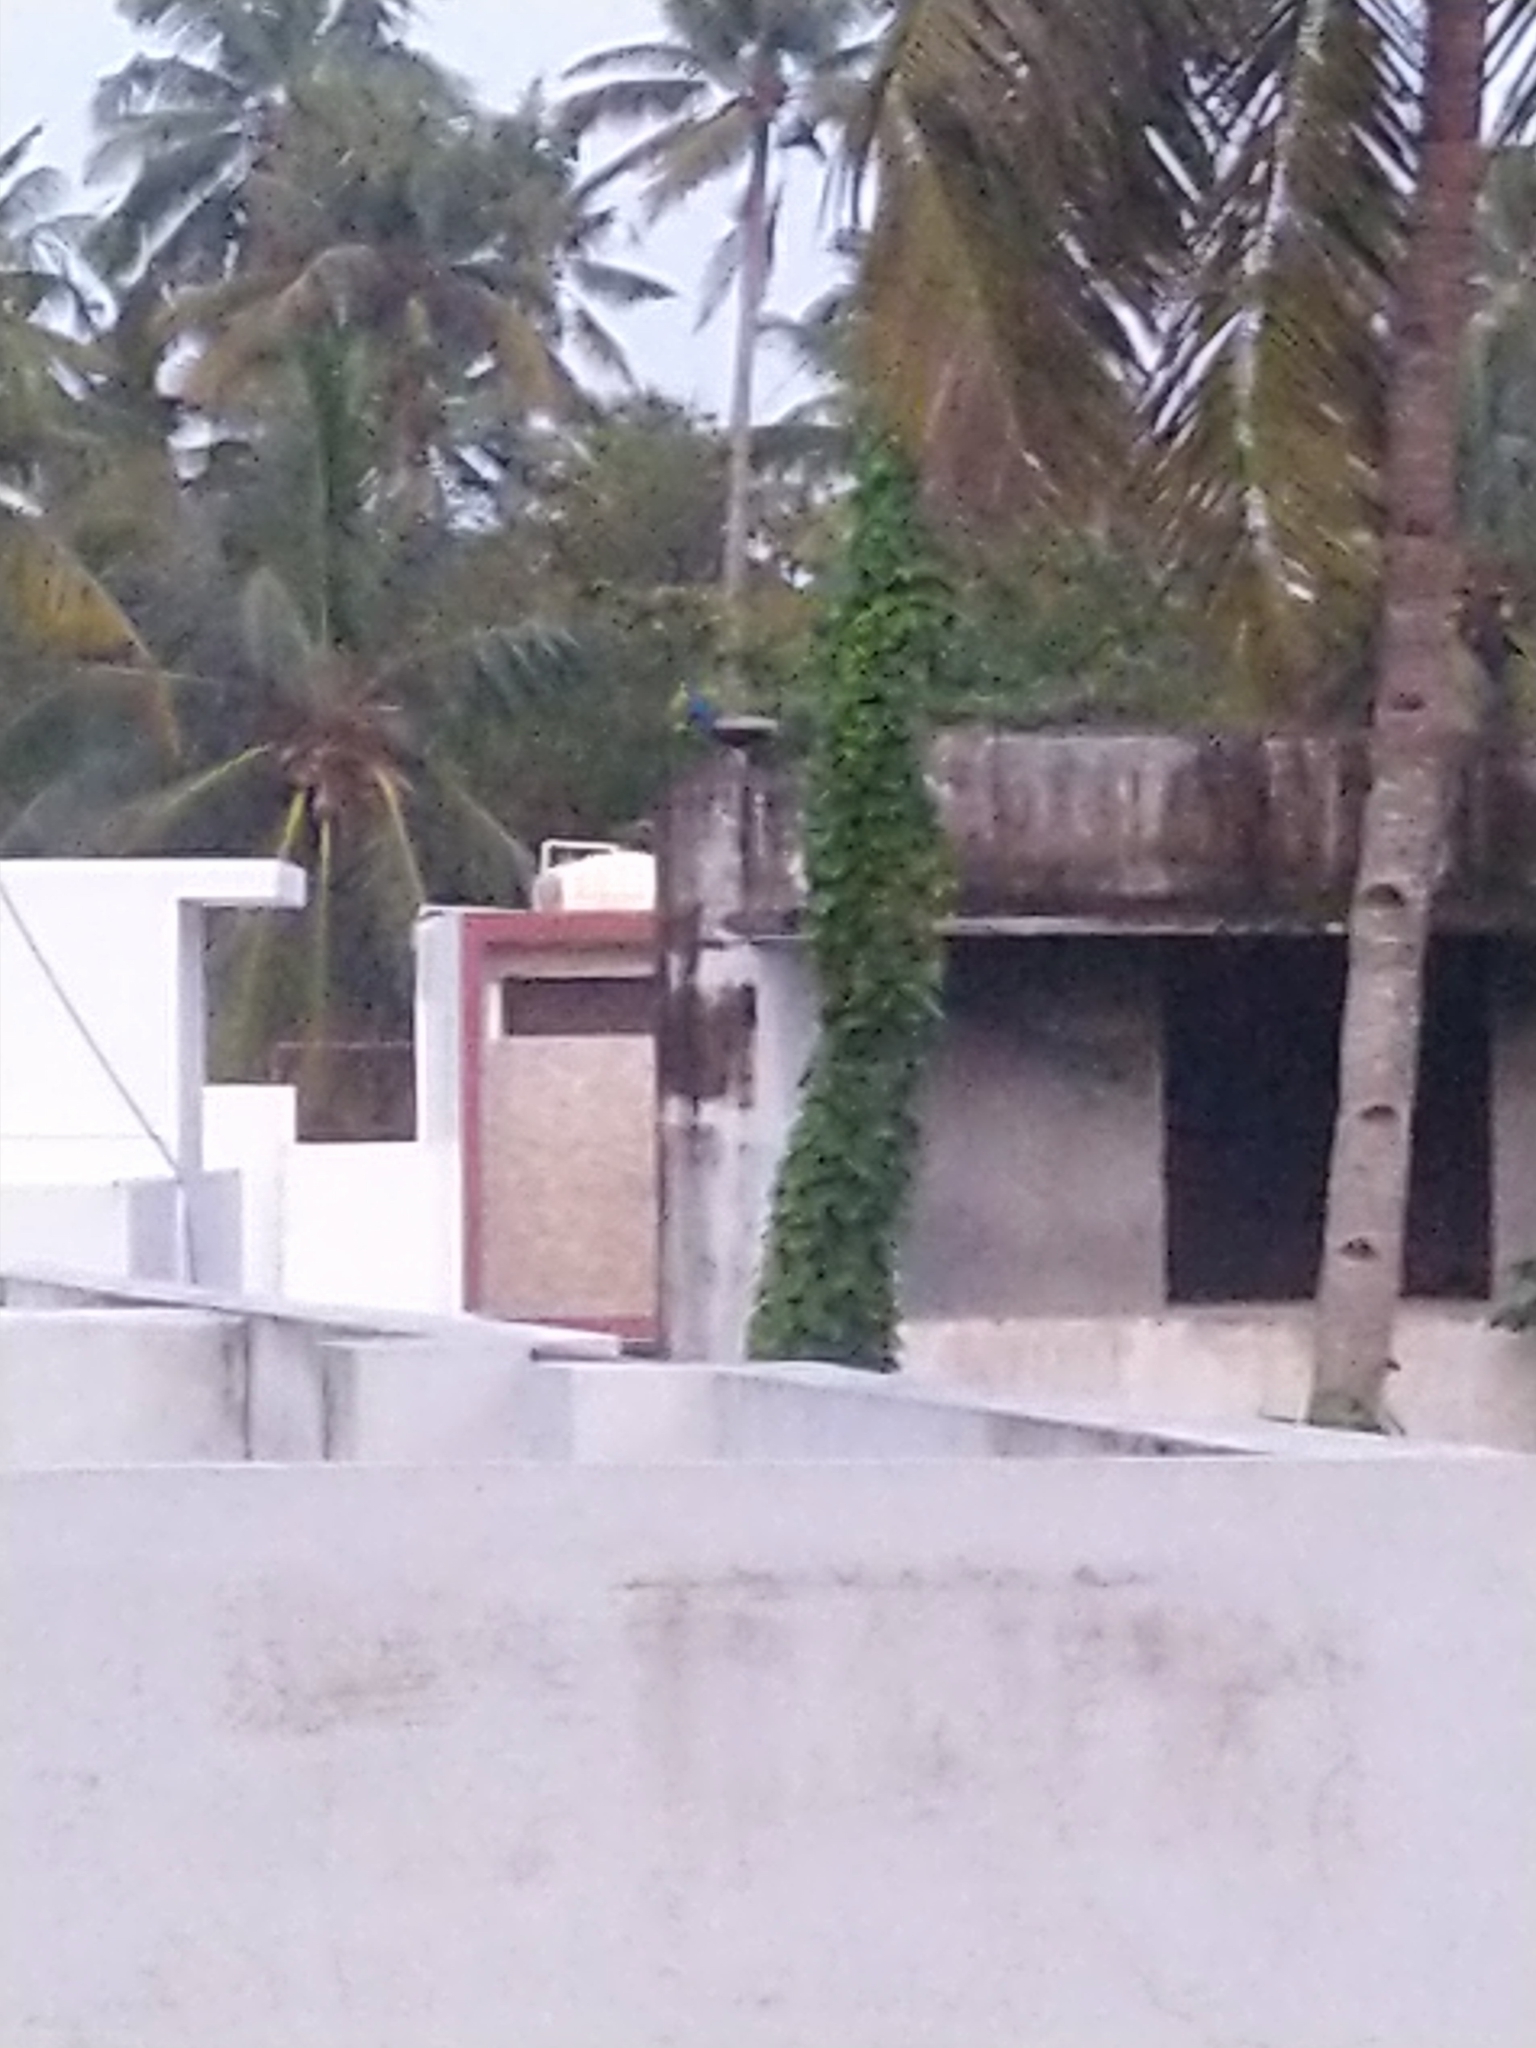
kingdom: Animalia
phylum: Chordata
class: Aves
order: Galliformes
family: Phasianidae
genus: Pavo
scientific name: Pavo cristatus
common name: Indian peafowl
